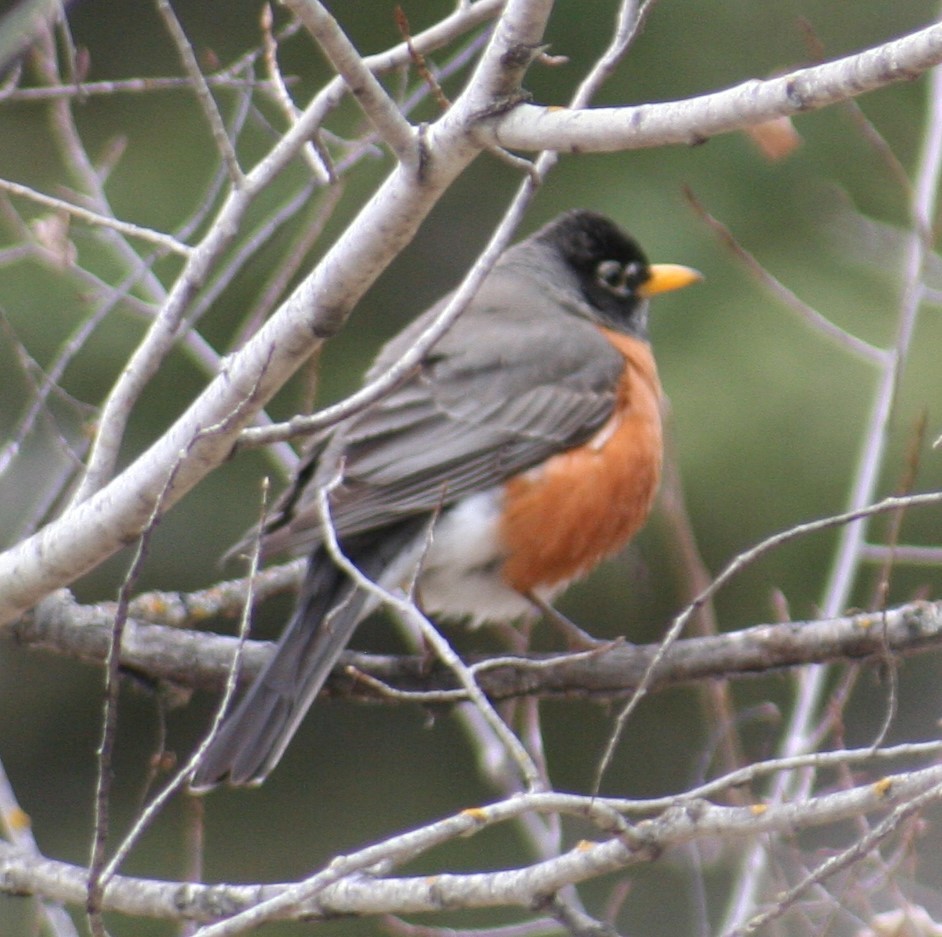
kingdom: Animalia
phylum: Chordata
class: Aves
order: Passeriformes
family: Turdidae
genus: Turdus
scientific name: Turdus migratorius
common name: American robin
